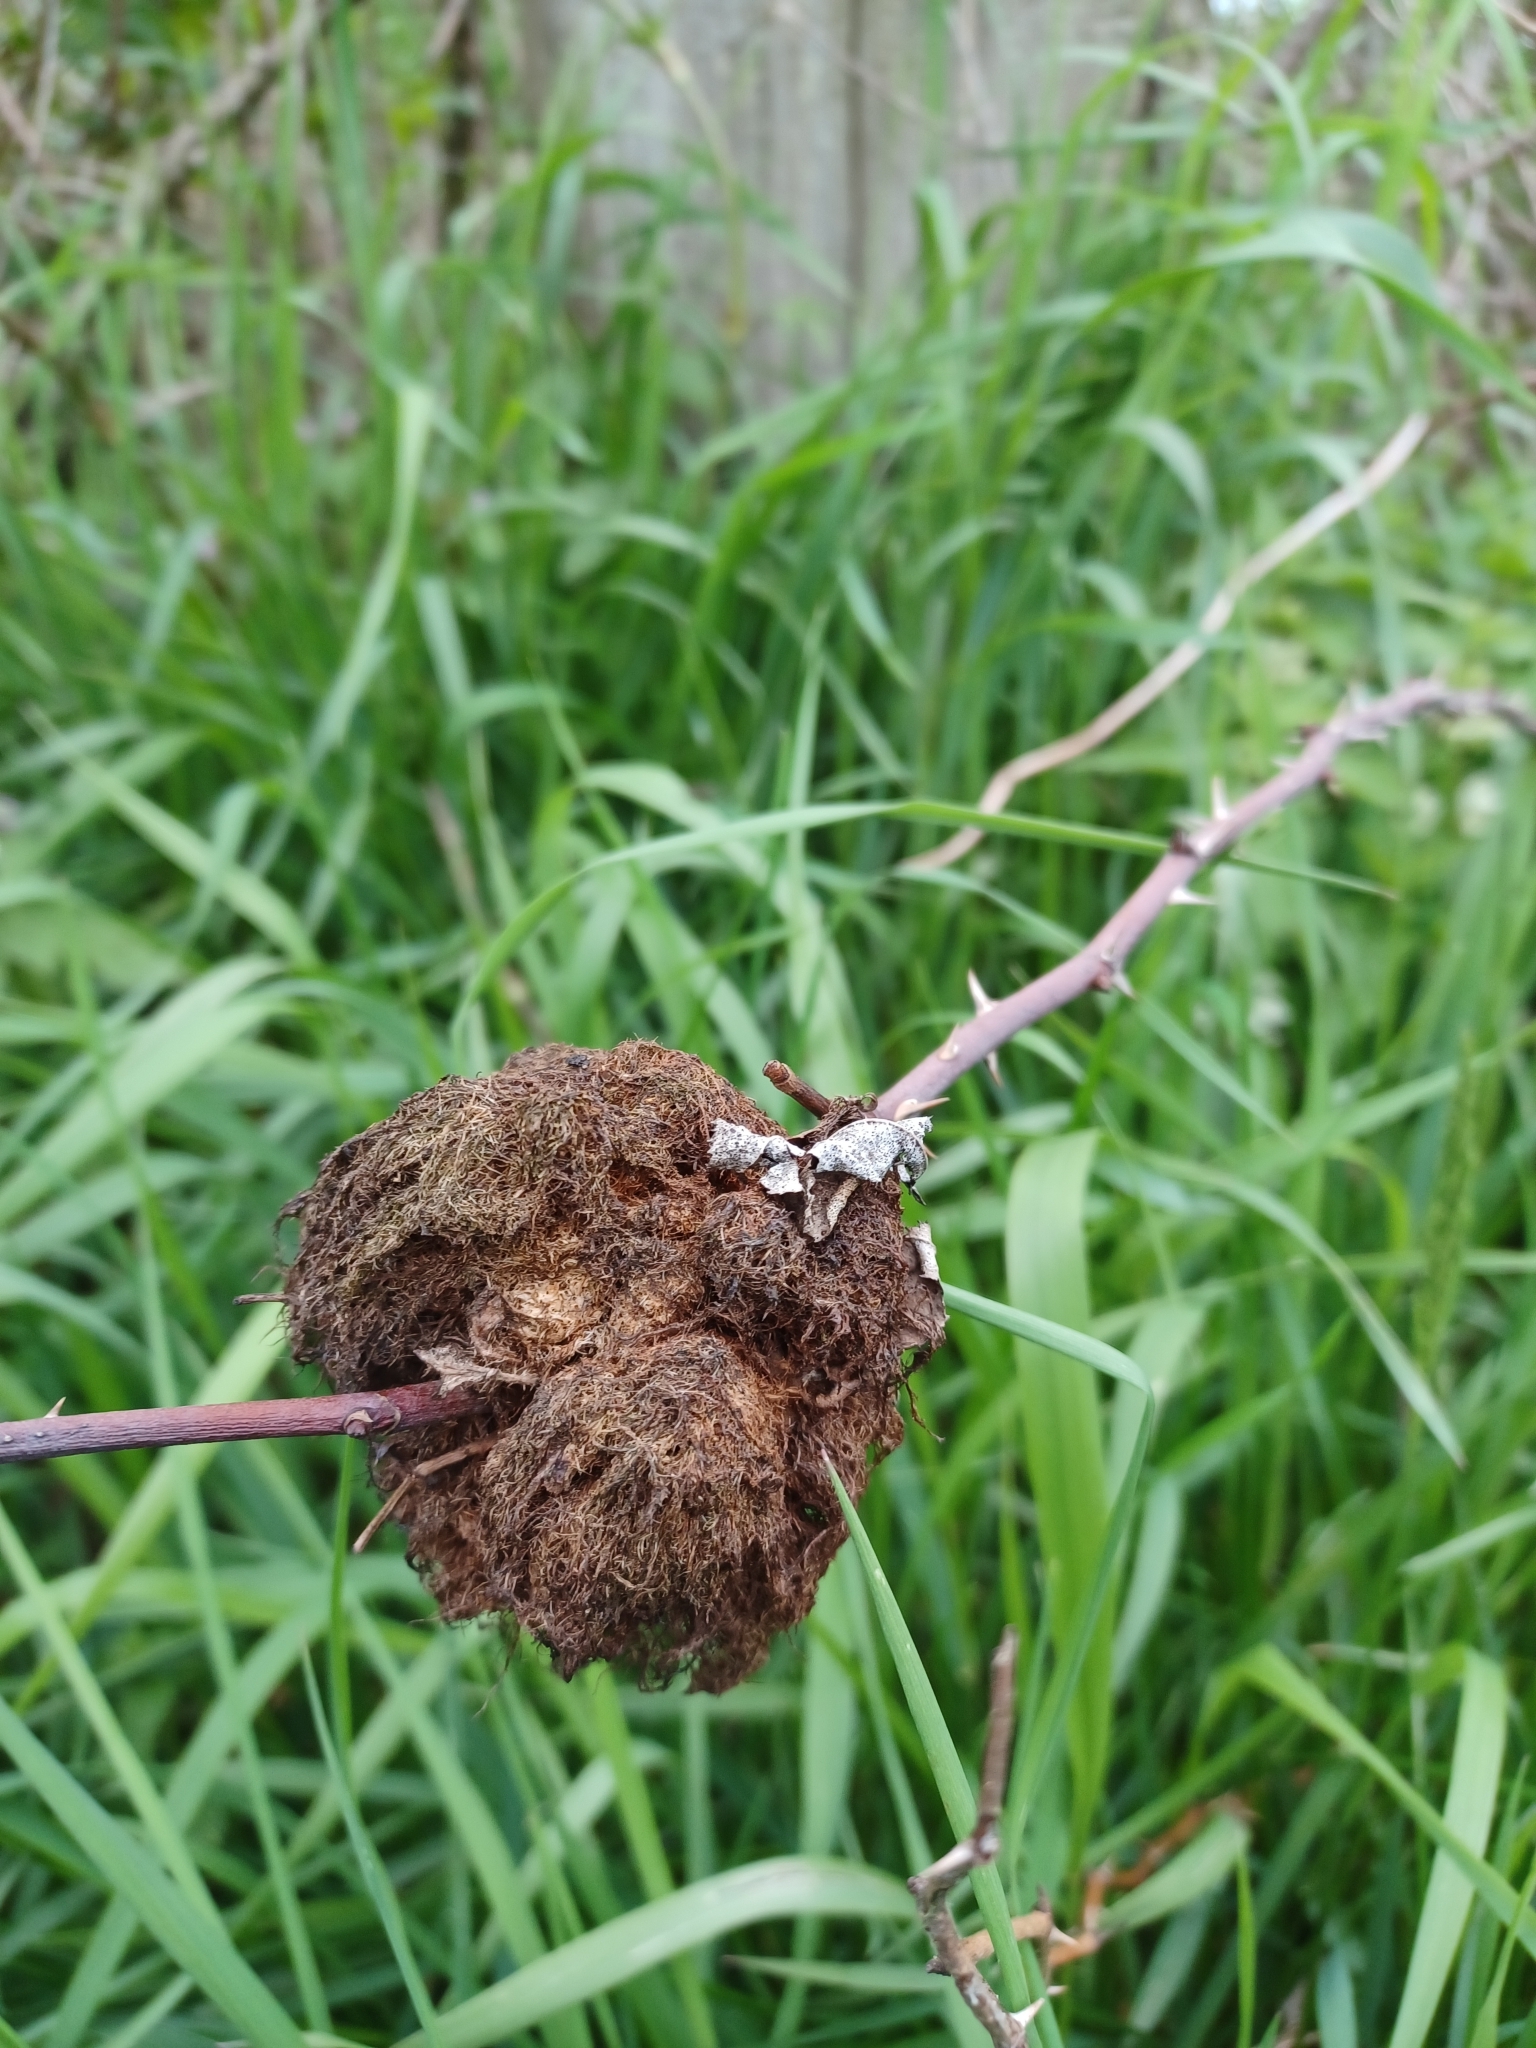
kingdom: Animalia
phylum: Arthropoda
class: Insecta
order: Hymenoptera
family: Cynipidae
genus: Diplolepis
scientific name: Diplolepis rosae
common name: Bedeguar gall
